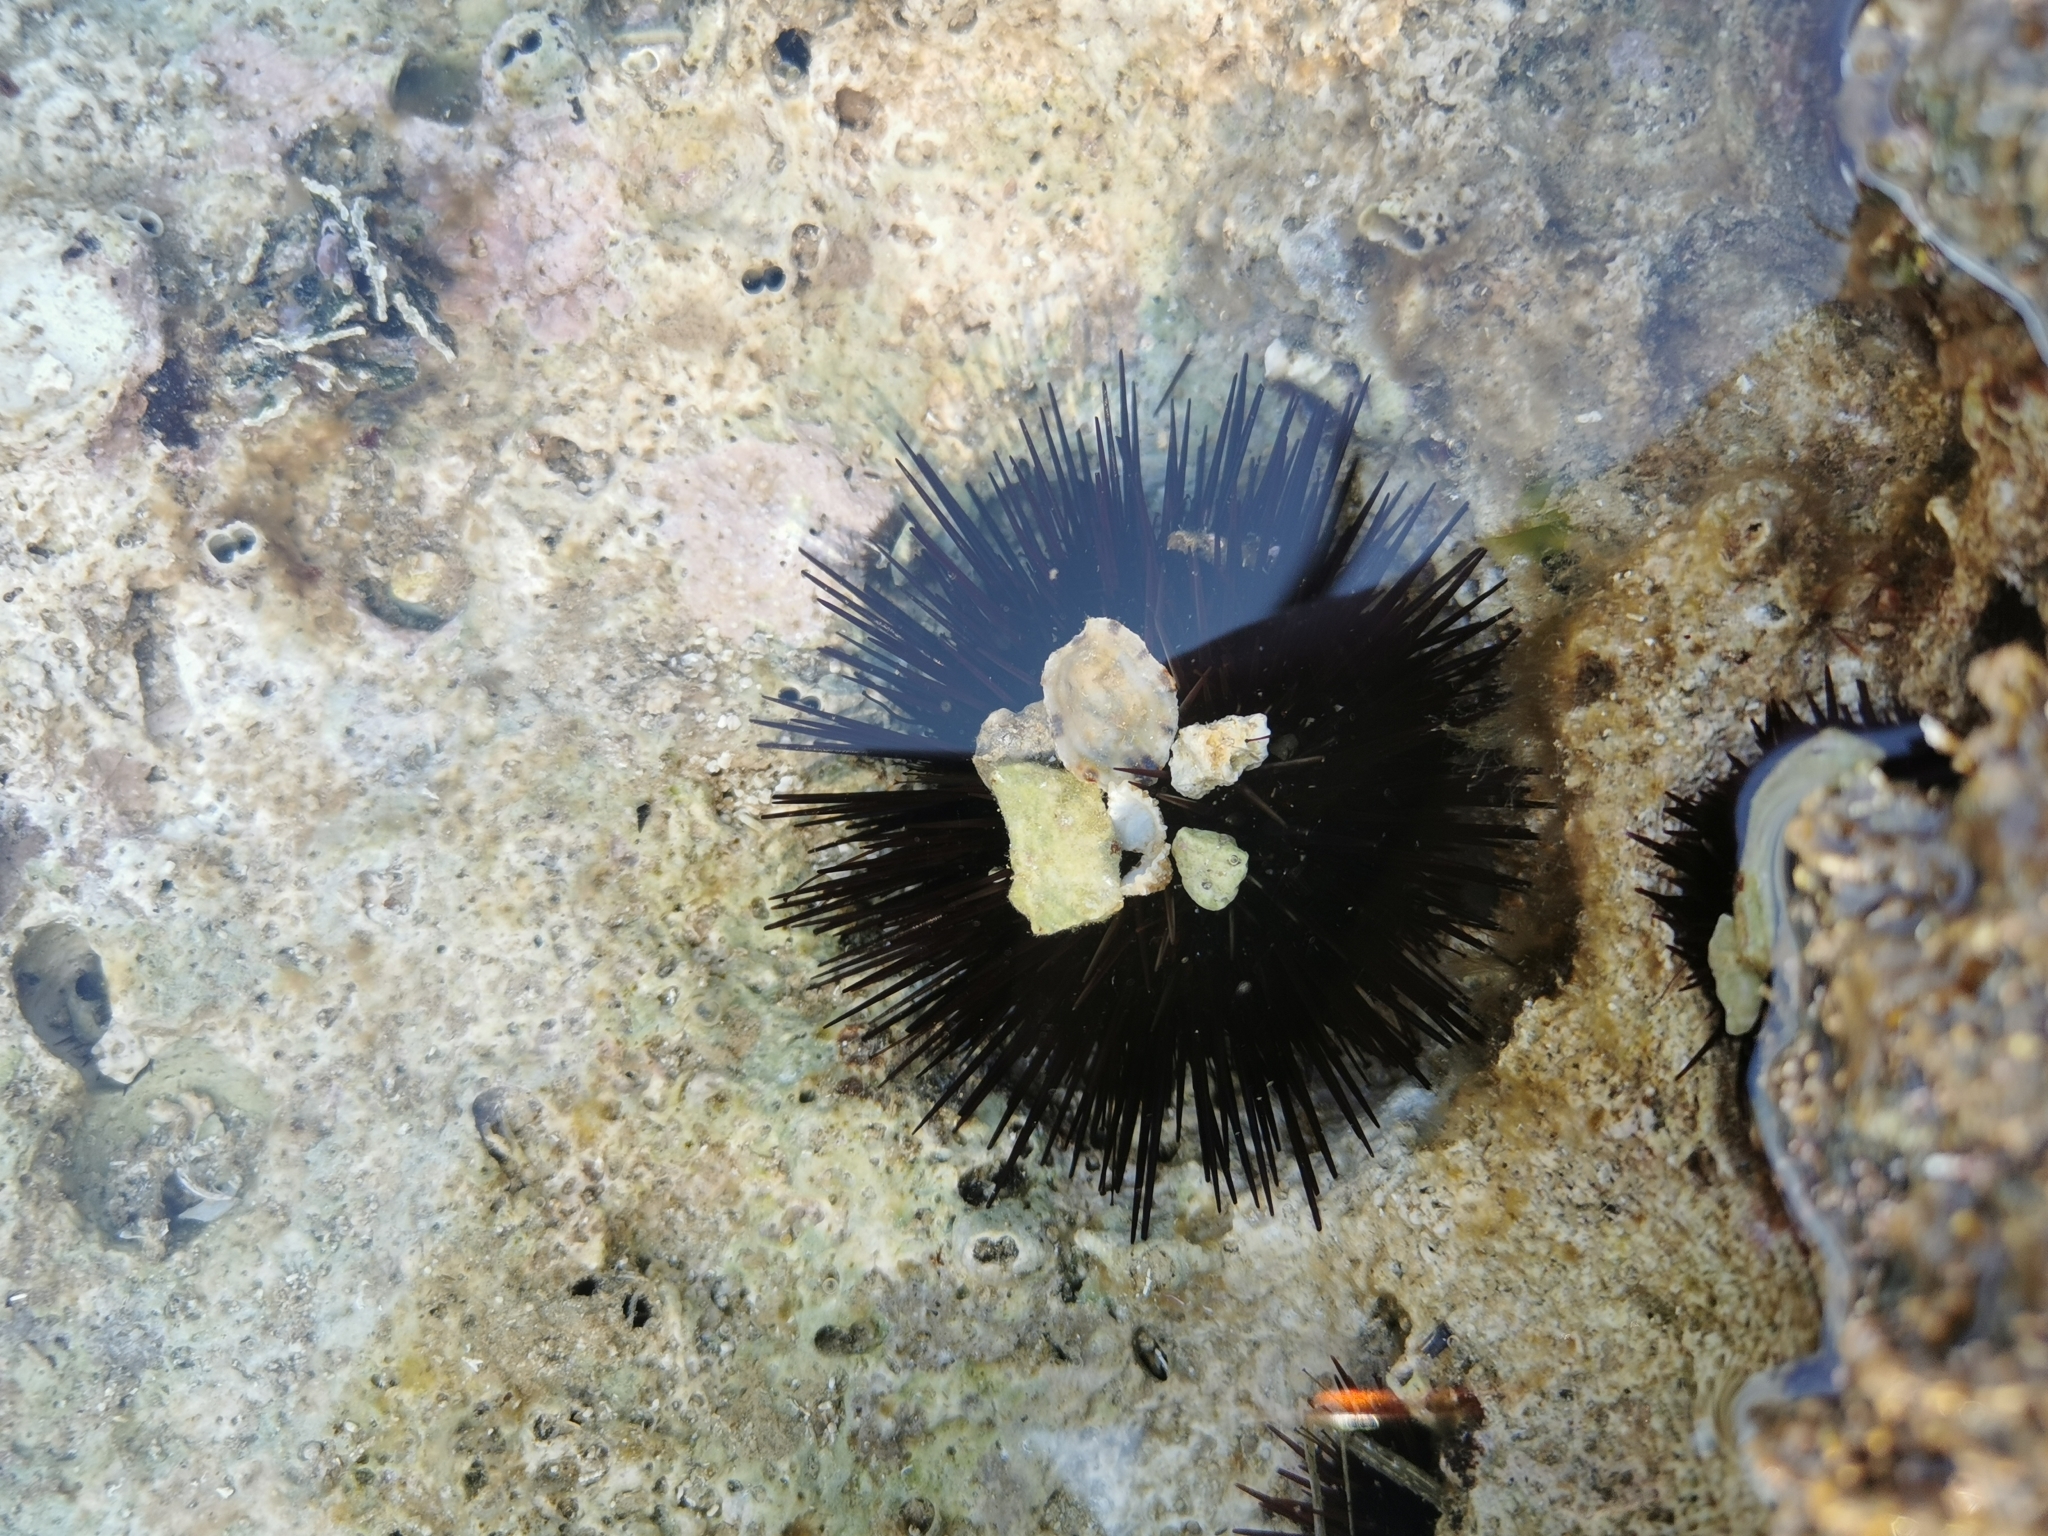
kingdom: Animalia
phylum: Echinodermata
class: Echinoidea
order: Camarodonta
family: Parechinidae
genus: Paracentrotus
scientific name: Paracentrotus lividus
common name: Purple sea urchin
